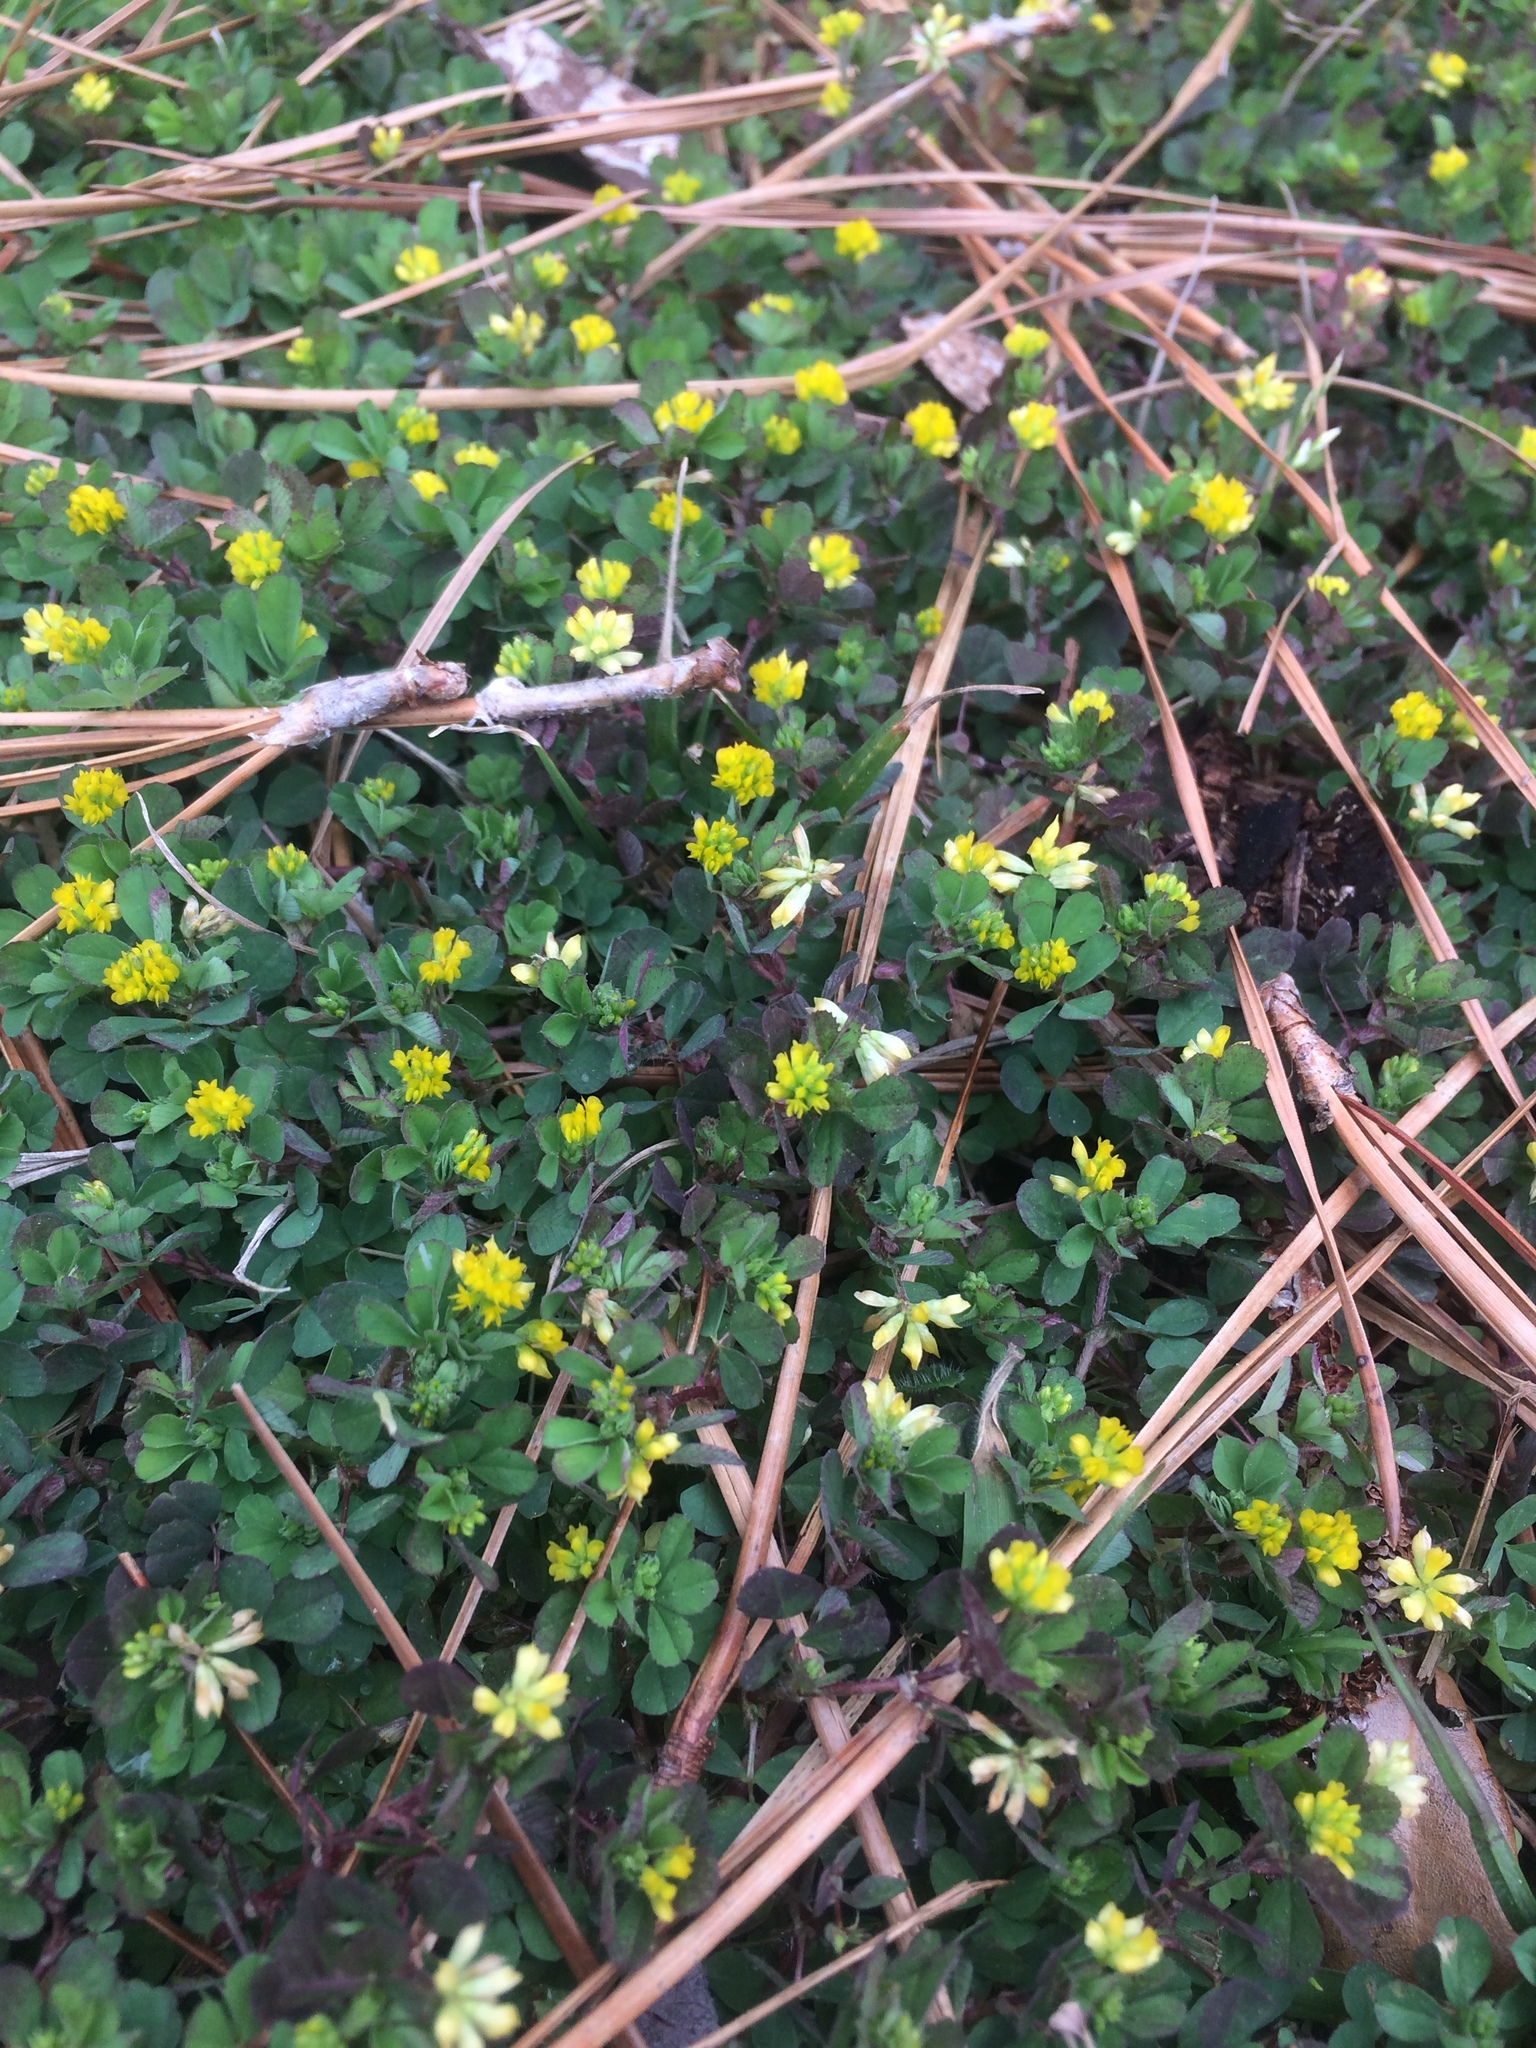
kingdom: Plantae
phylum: Tracheophyta
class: Magnoliopsida
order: Fabales
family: Fabaceae
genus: Trifolium
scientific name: Trifolium dubium
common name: Suckling clover
